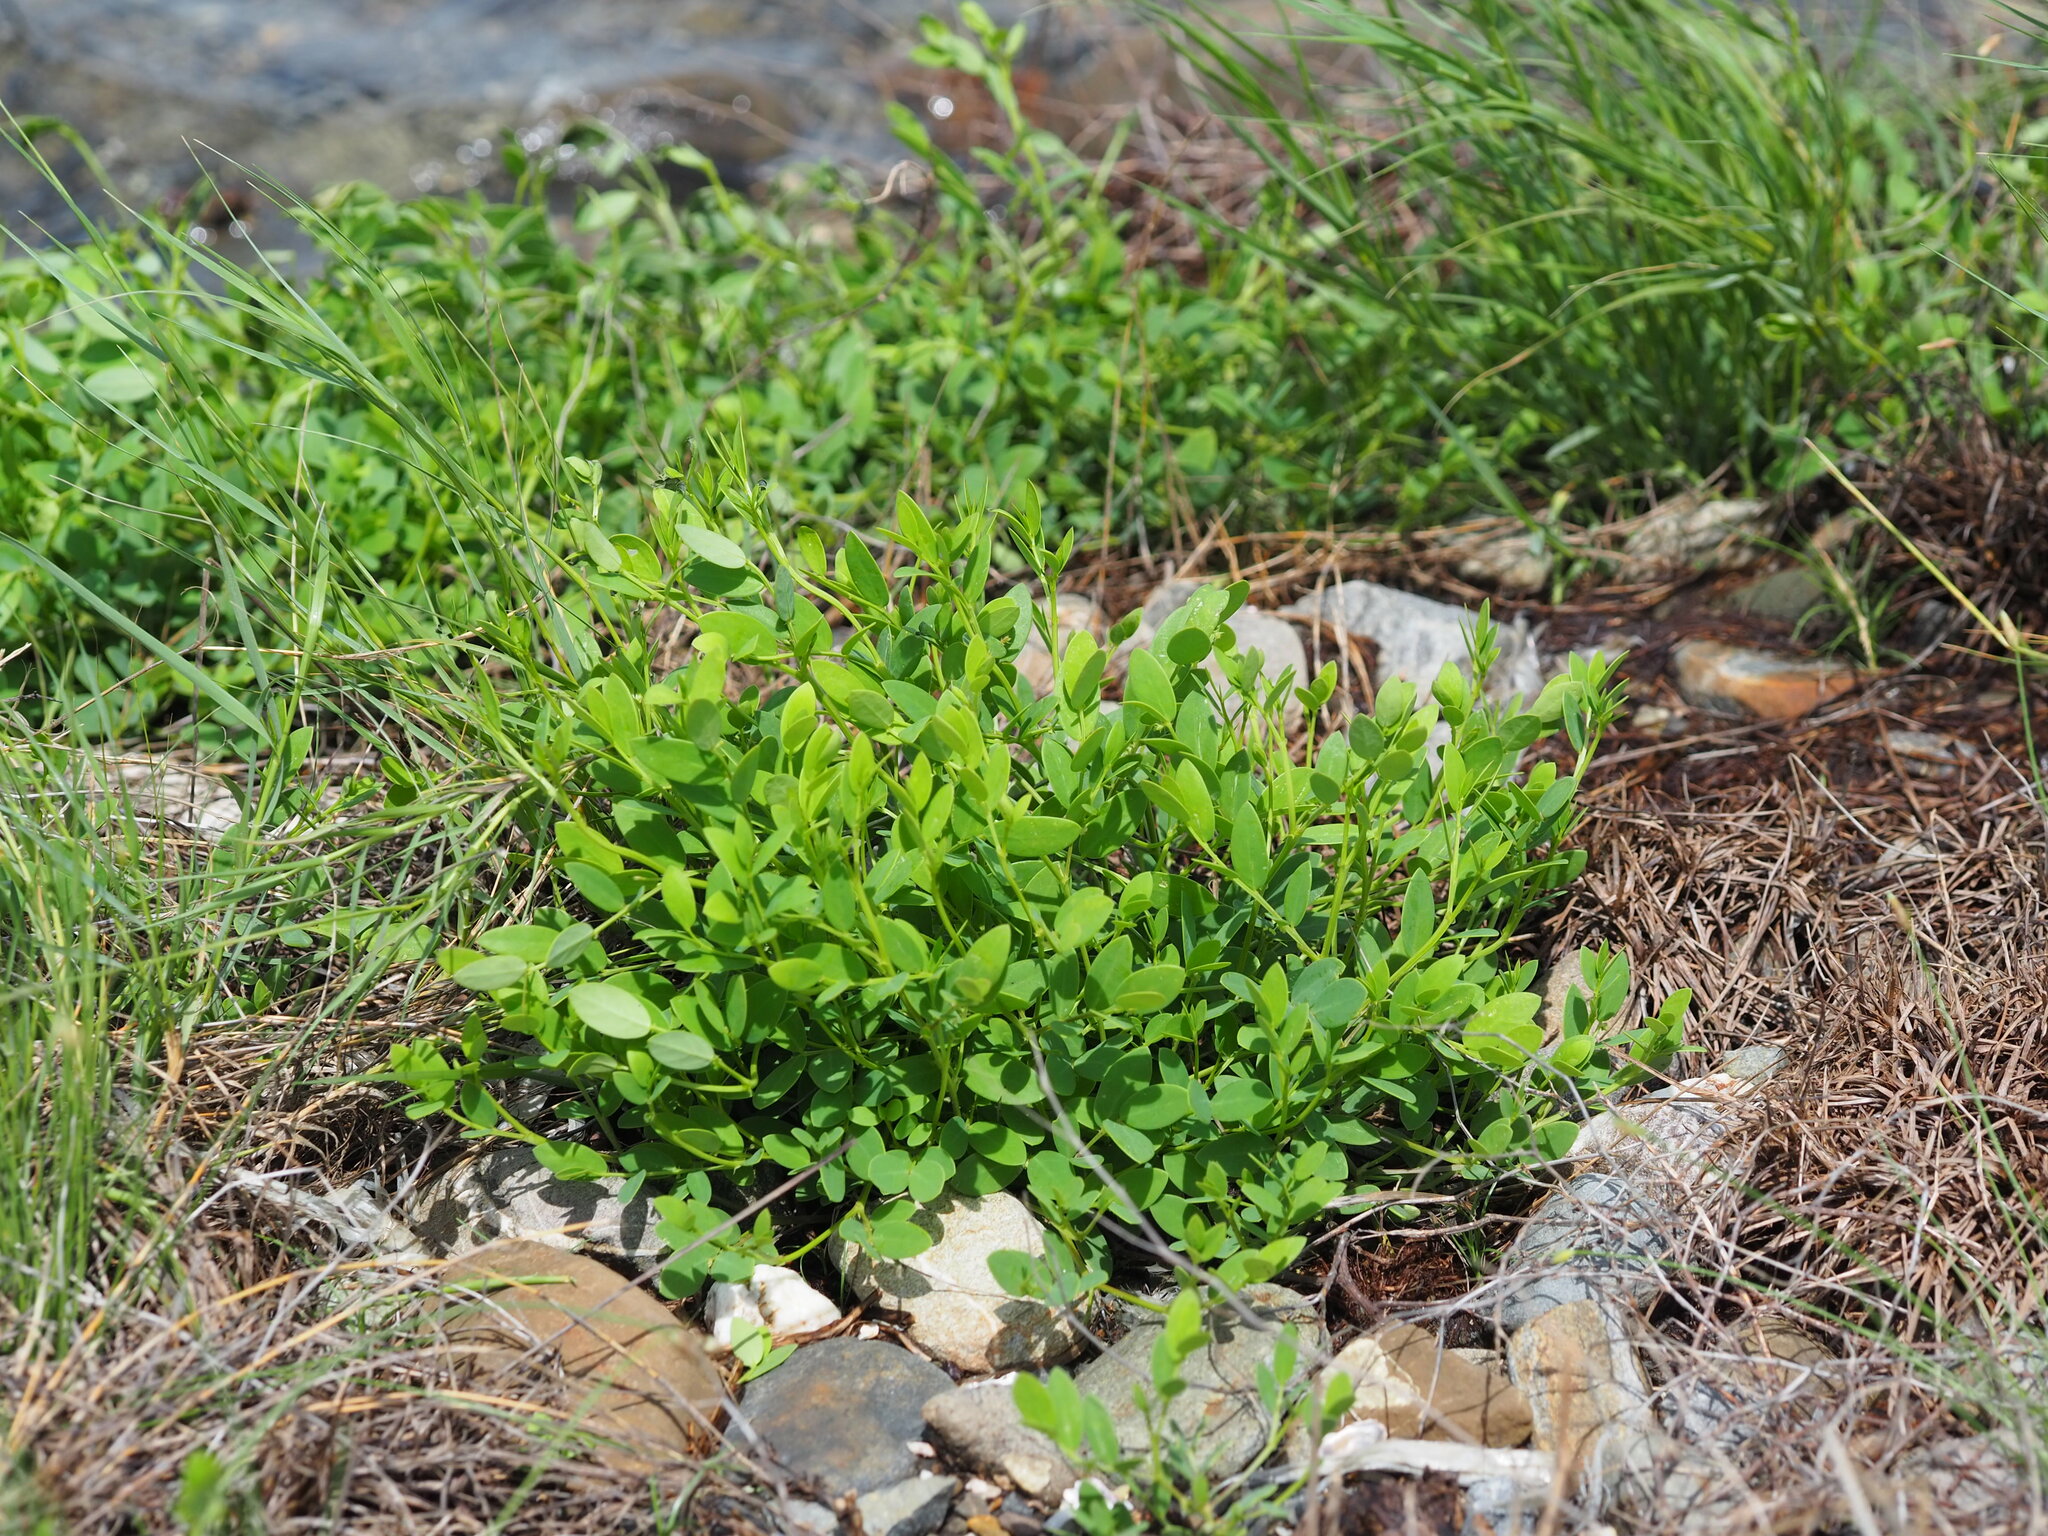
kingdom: Plantae
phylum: Tracheophyta
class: Magnoliopsida
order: Malpighiales
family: Phyllanthaceae
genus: Synostemon
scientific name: Synostemon bacciformis
